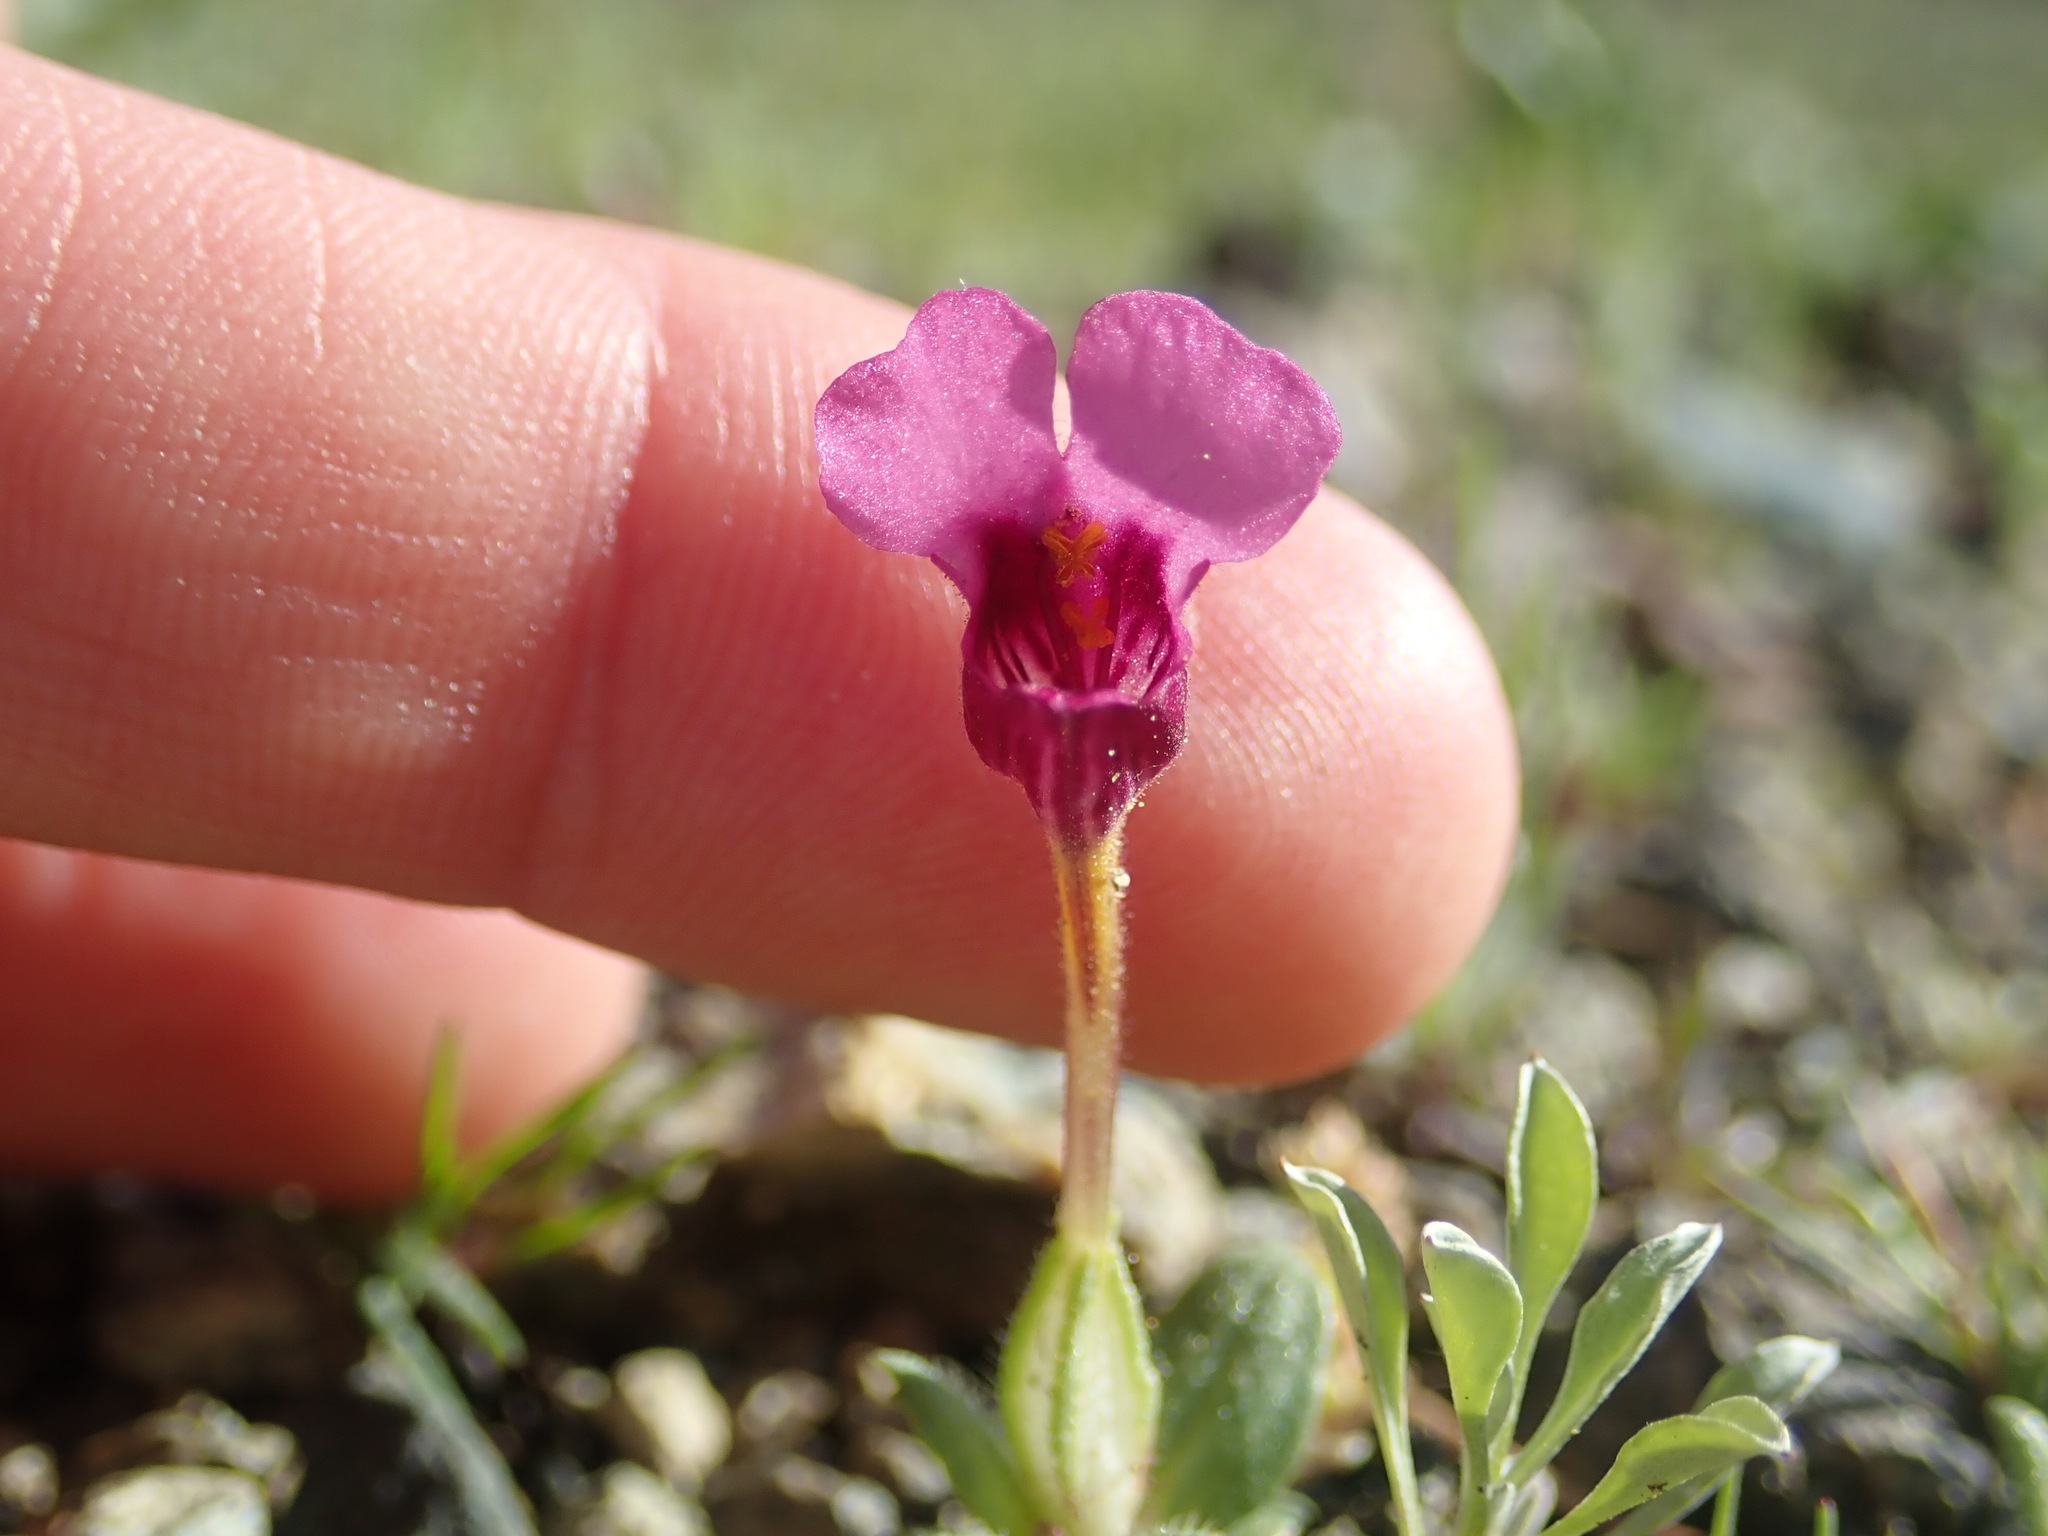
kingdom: Plantae
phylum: Tracheophyta
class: Magnoliopsida
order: Lamiales
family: Phrymaceae
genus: Diplacus
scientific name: Diplacus douglasii
